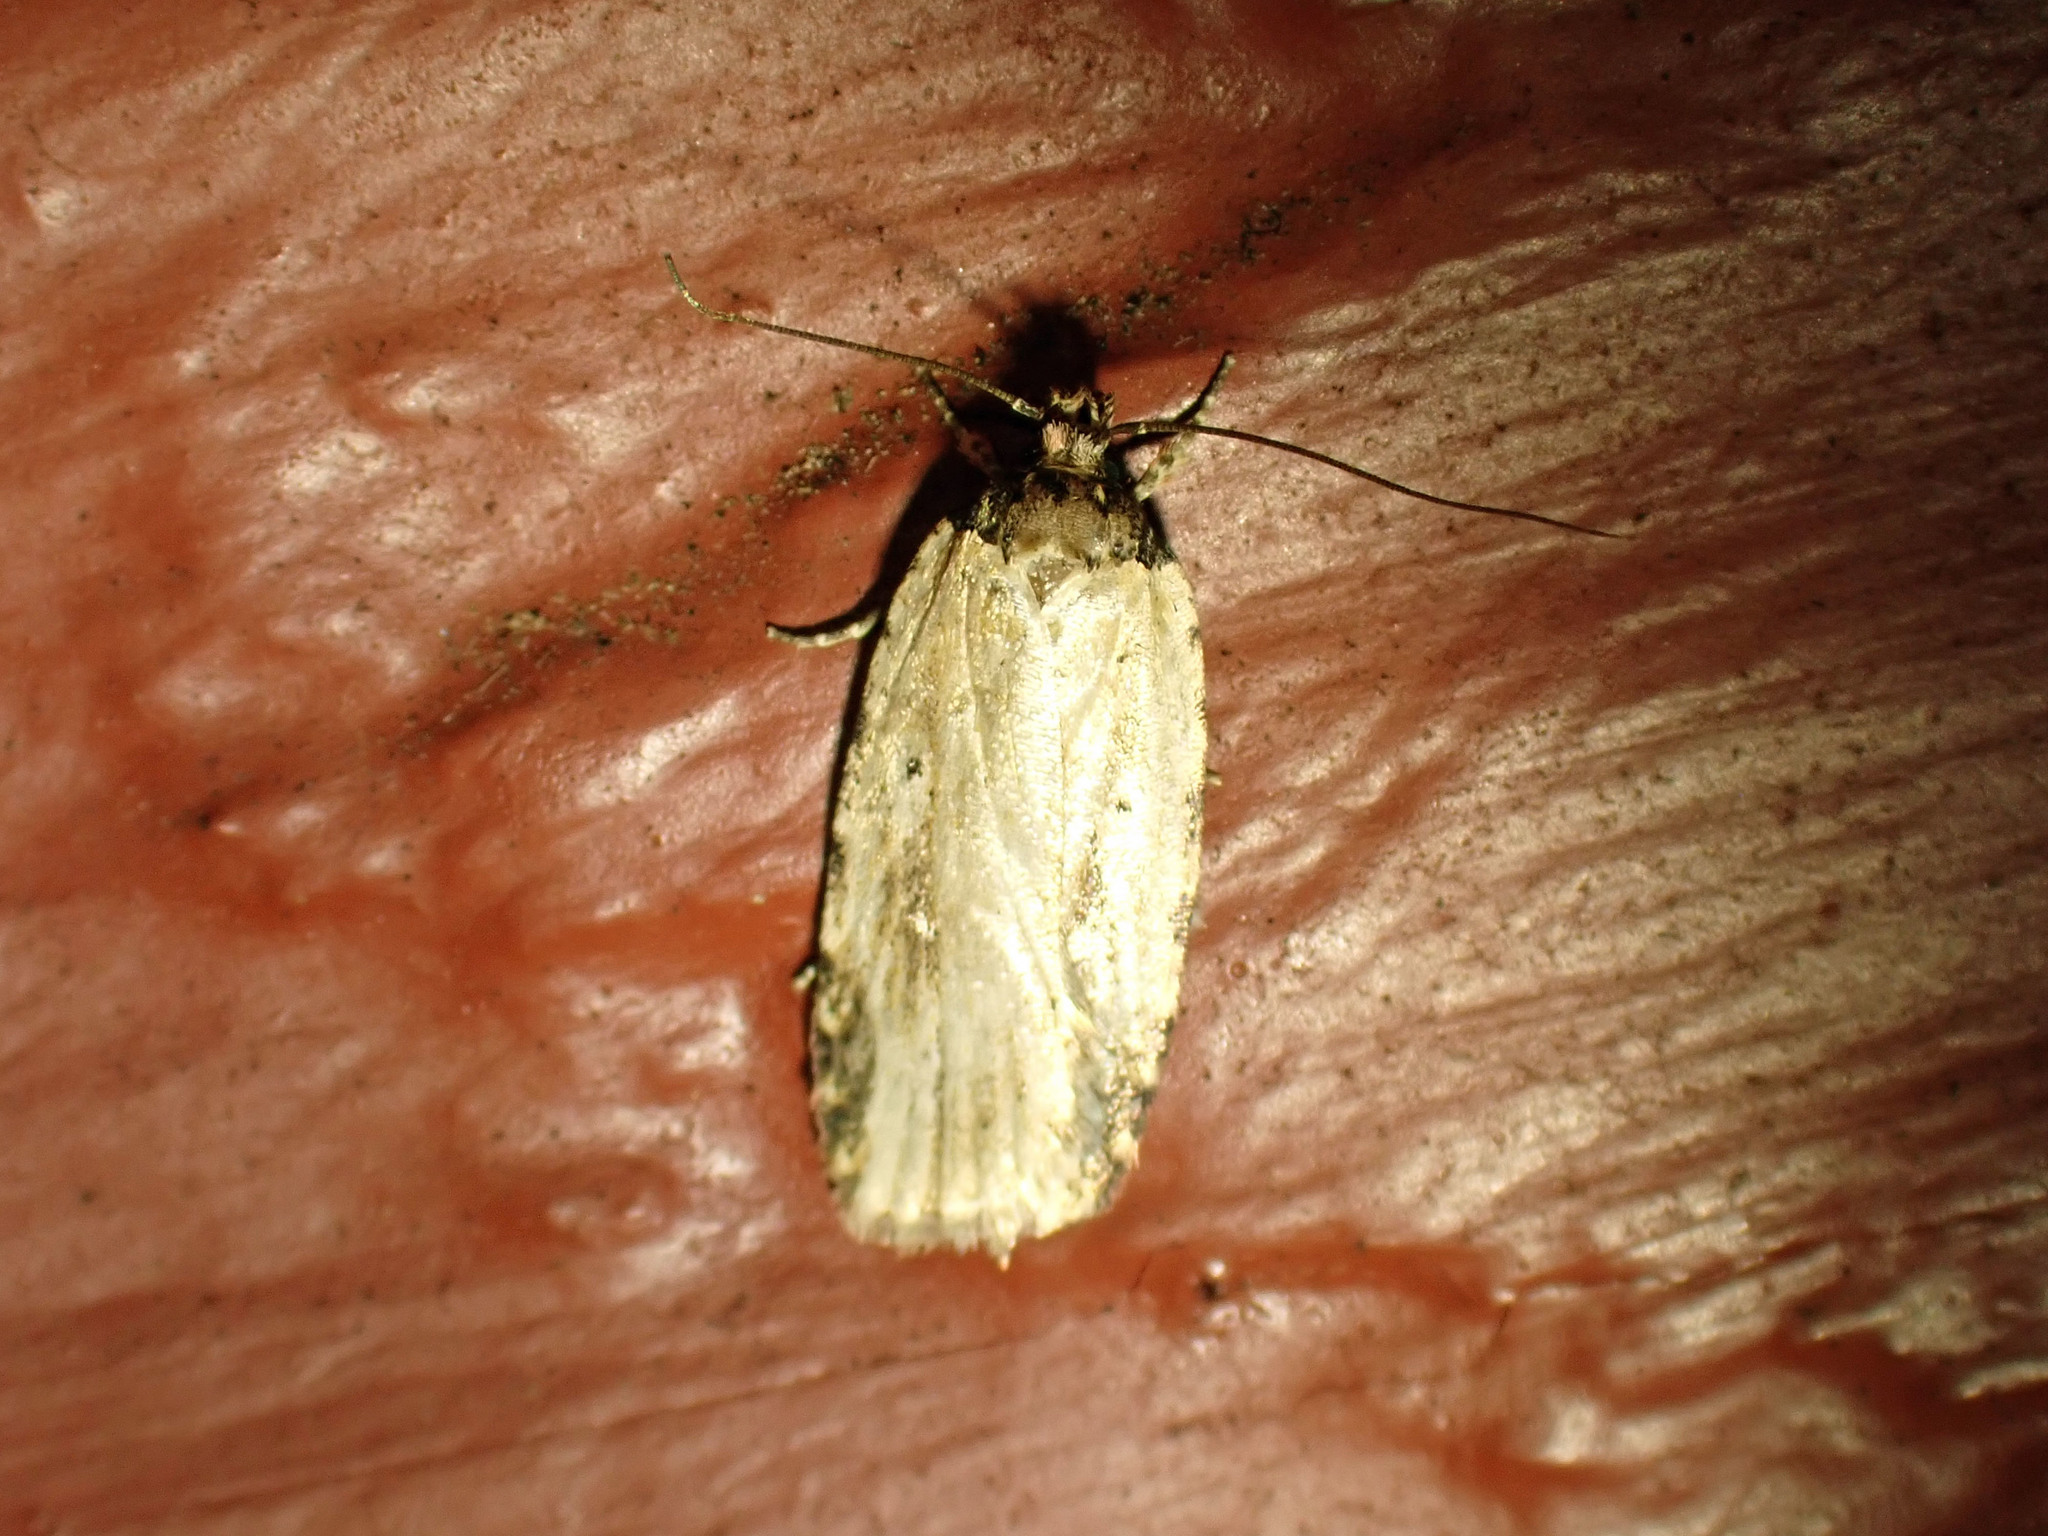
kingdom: Animalia
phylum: Arthropoda
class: Insecta
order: Lepidoptera
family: Depressariidae
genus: Agonopterix
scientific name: Agonopterix atrodorsella
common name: Beggartick leaffolder
